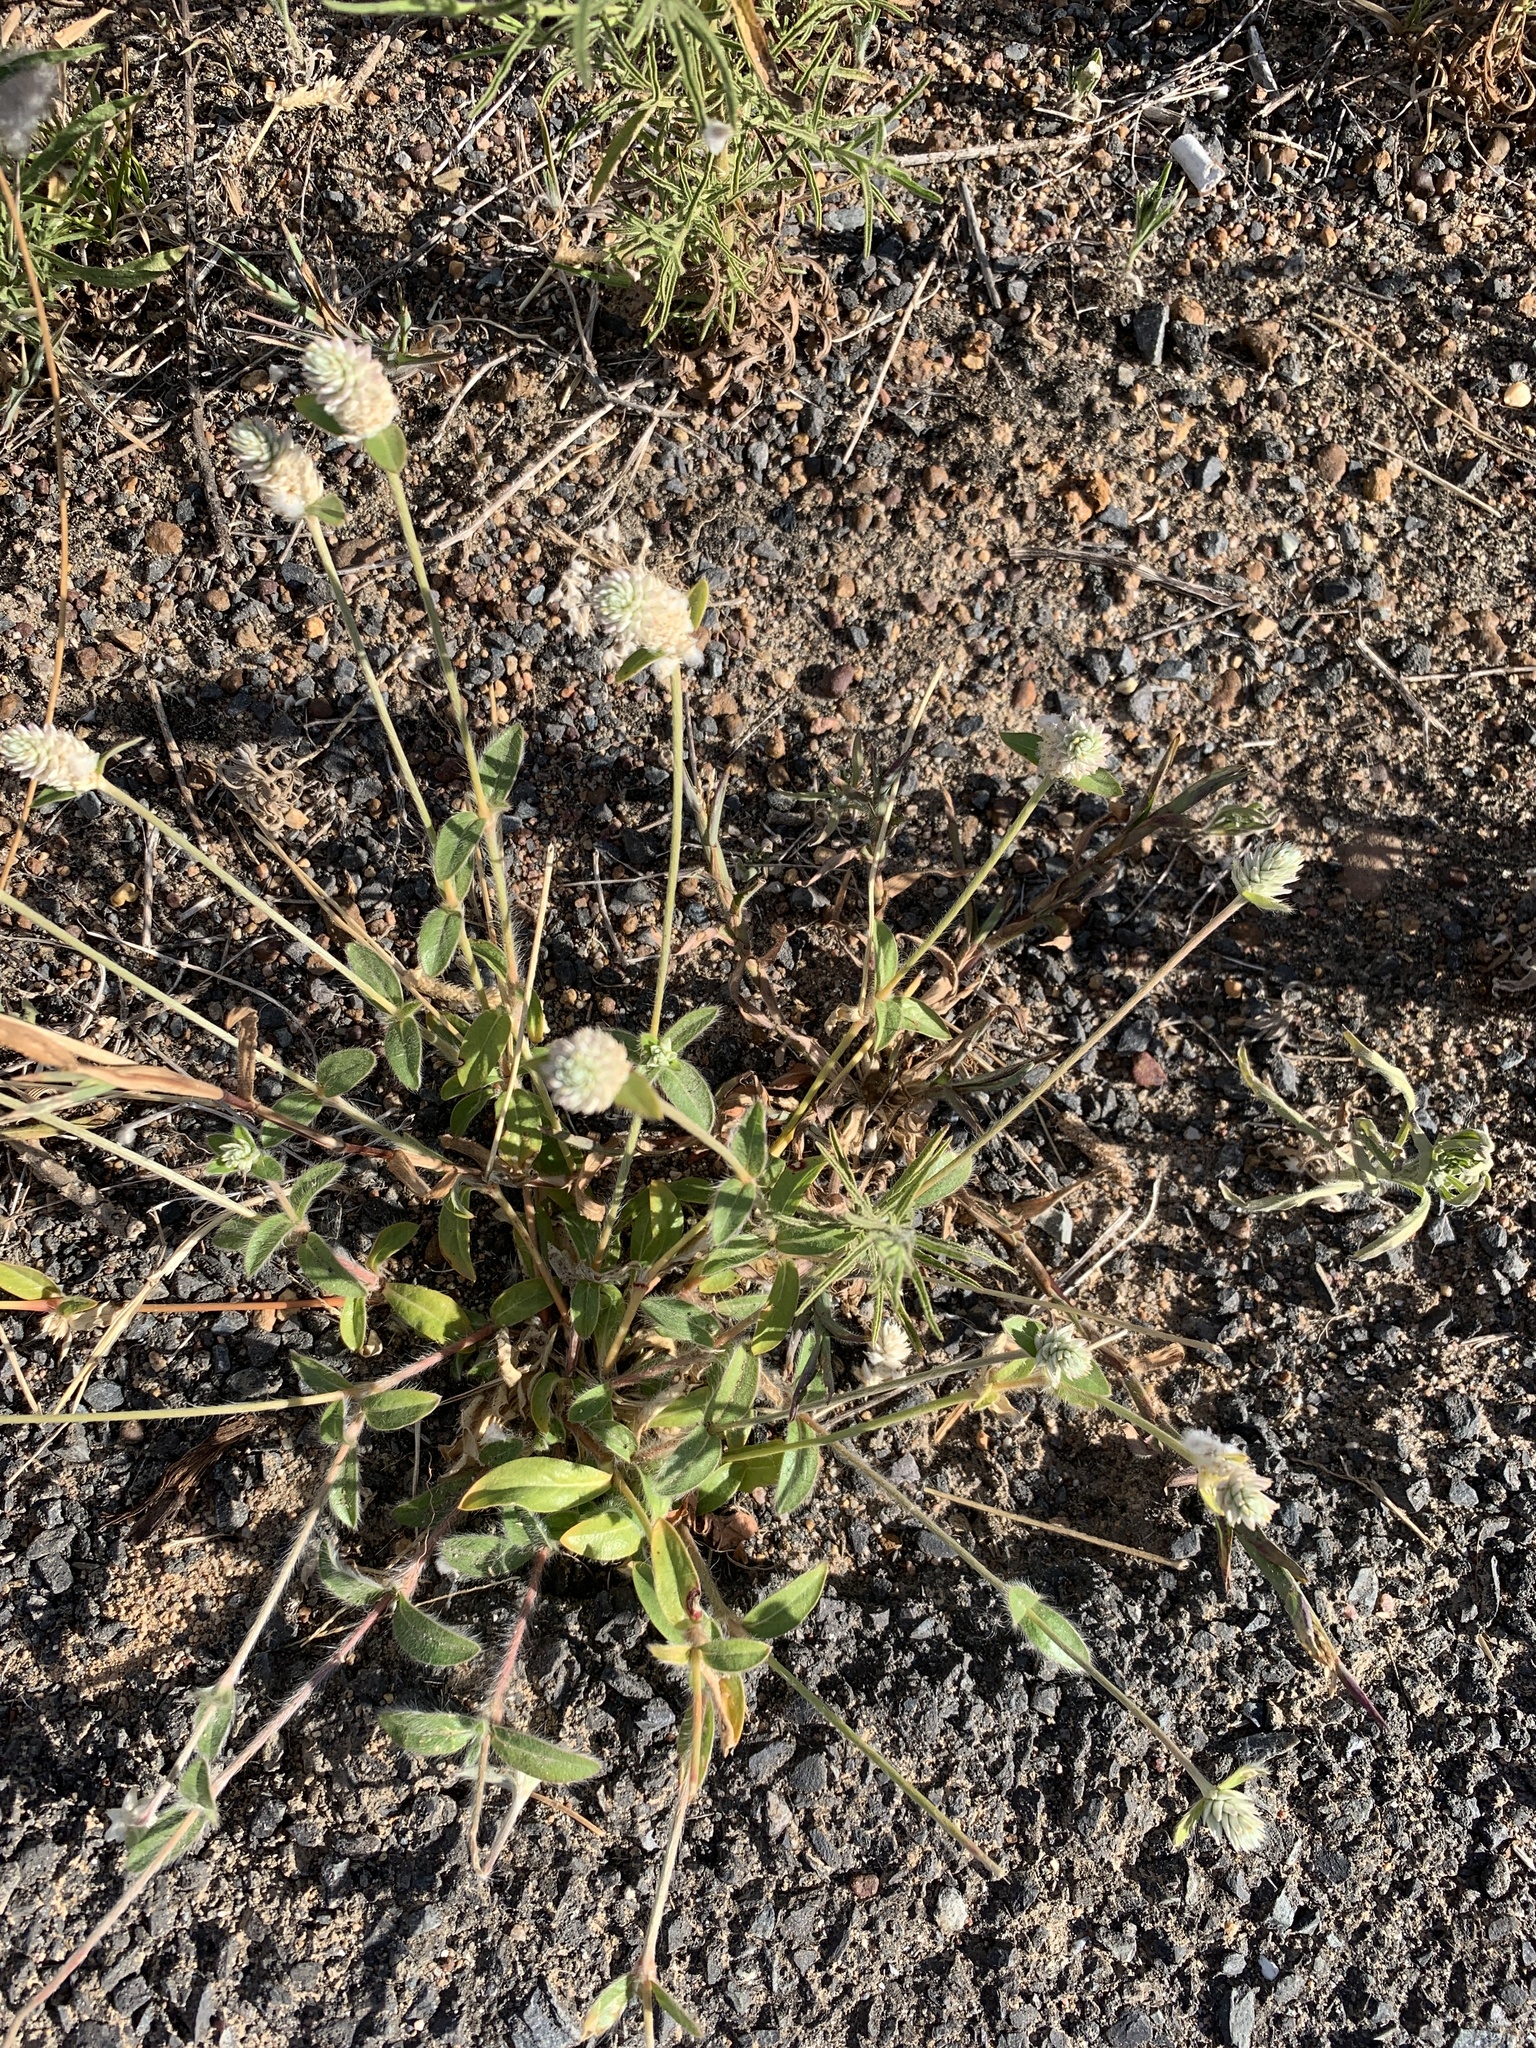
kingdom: Plantae
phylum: Tracheophyta
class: Magnoliopsida
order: Caryophyllales
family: Amaranthaceae
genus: Gomphrena
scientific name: Gomphrena celosioides
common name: Gomphrena-weed
